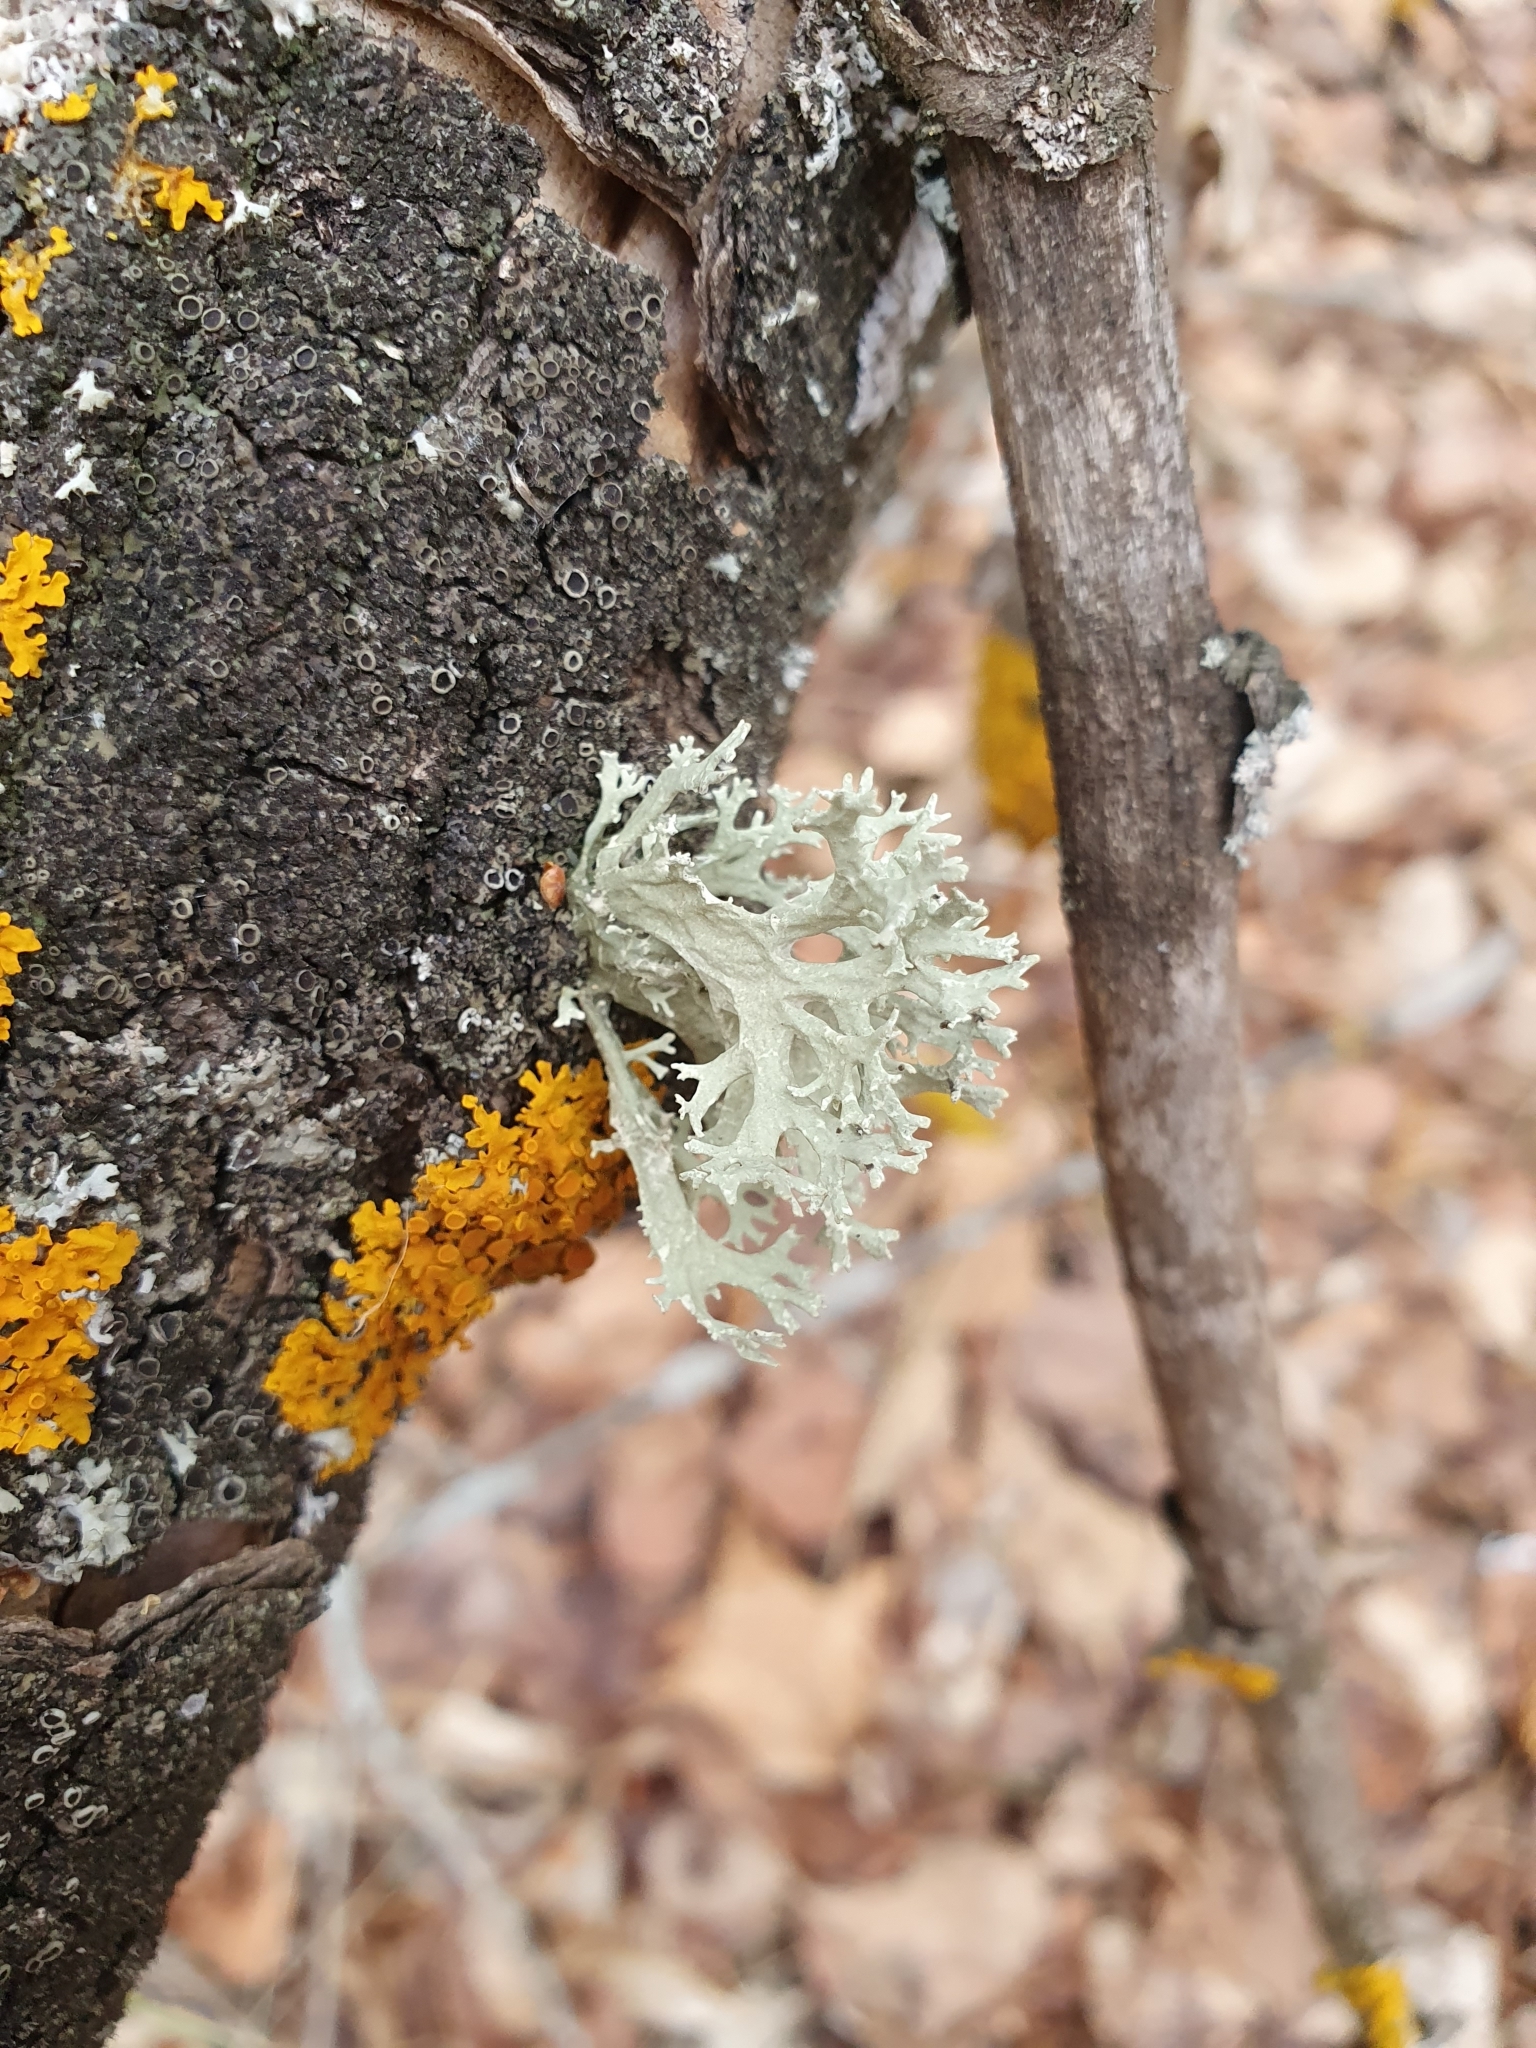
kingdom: Fungi
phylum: Ascomycota
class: Lecanoromycetes
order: Lecanorales
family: Parmeliaceae
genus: Evernia
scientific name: Evernia prunastri
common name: Oak moss
